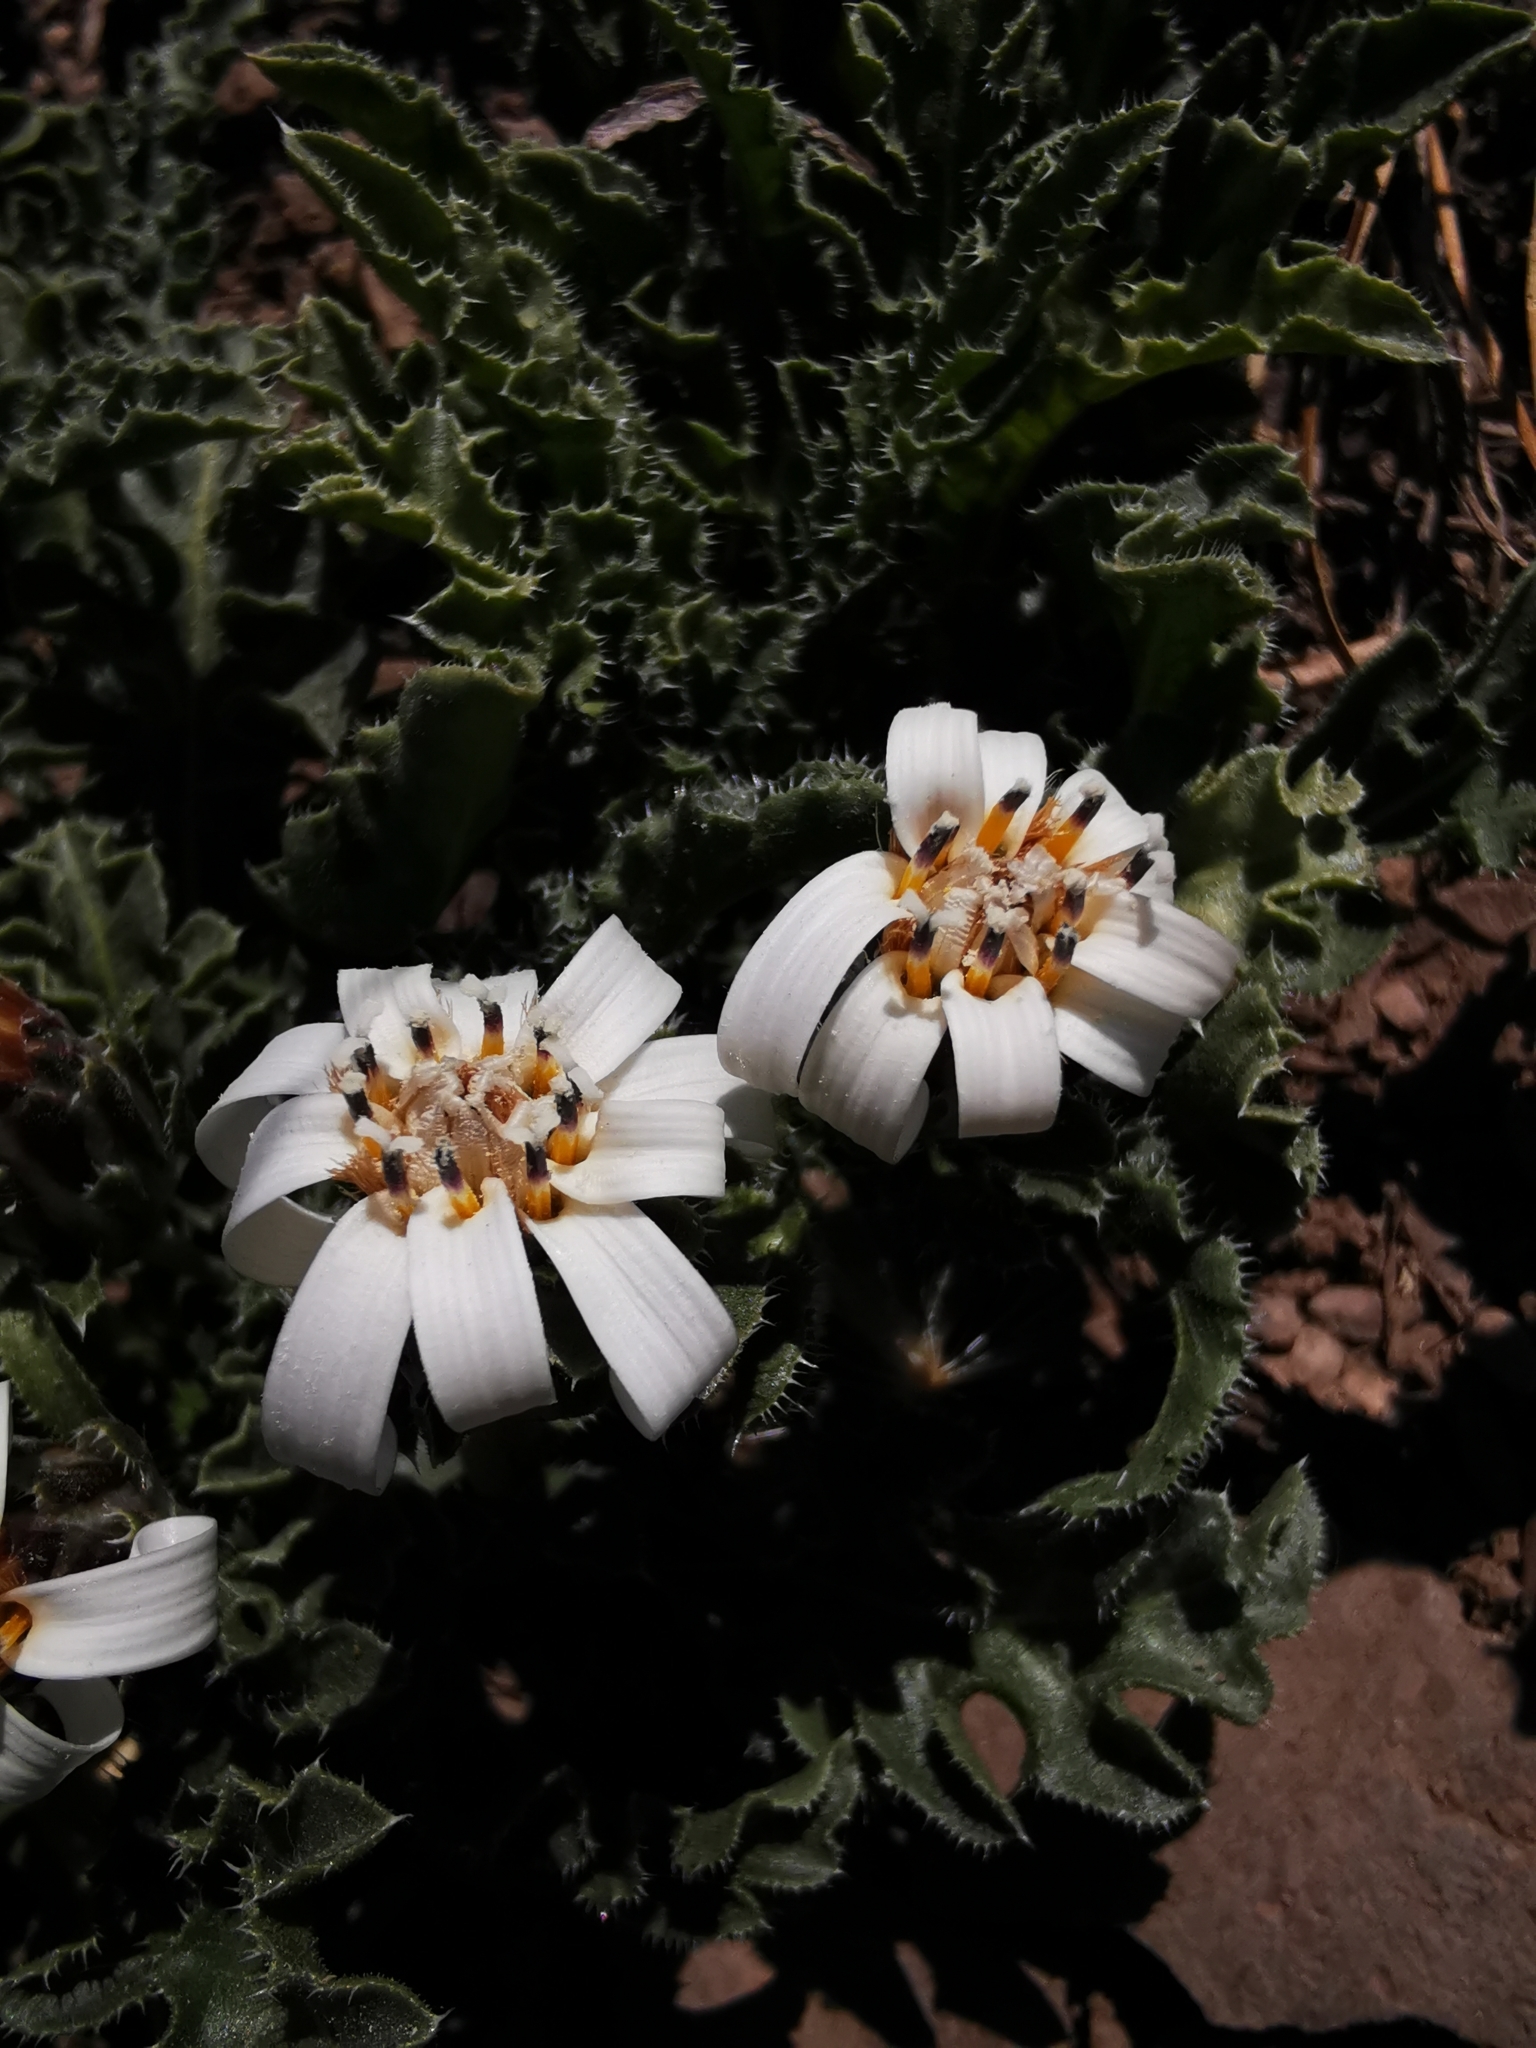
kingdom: Plantae
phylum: Tracheophyta
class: Magnoliopsida
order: Asterales
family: Asteraceae
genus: Perezia
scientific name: Perezia carthamoides
